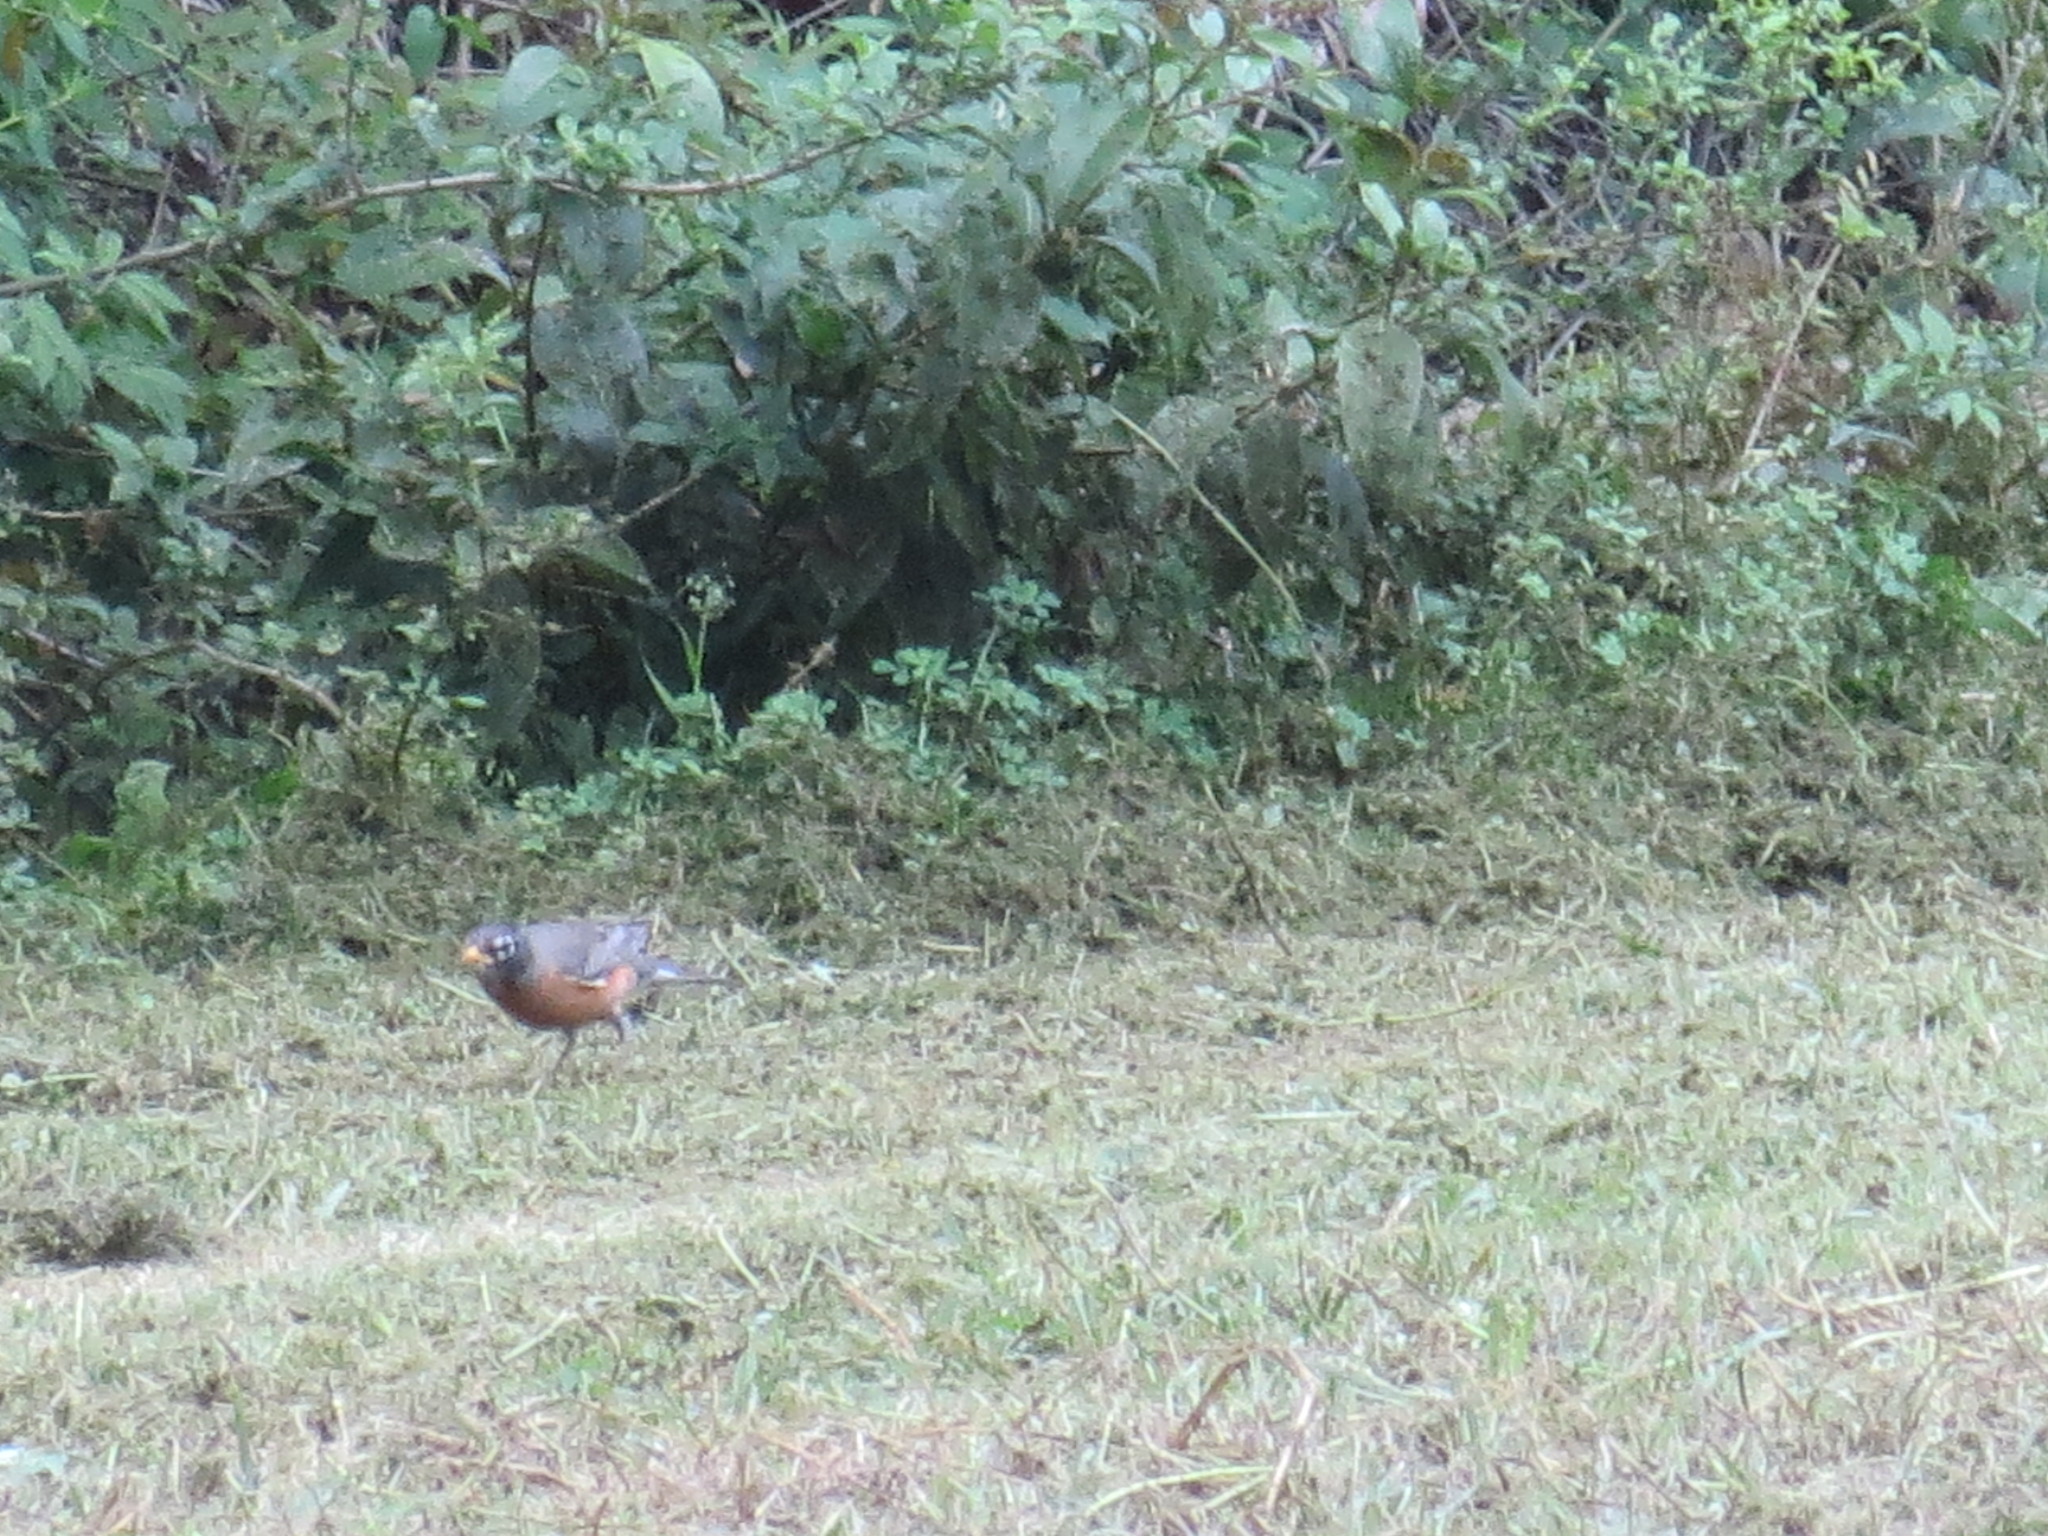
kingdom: Animalia
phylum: Chordata
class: Aves
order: Passeriformes
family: Turdidae
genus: Turdus
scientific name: Turdus migratorius
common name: American robin
